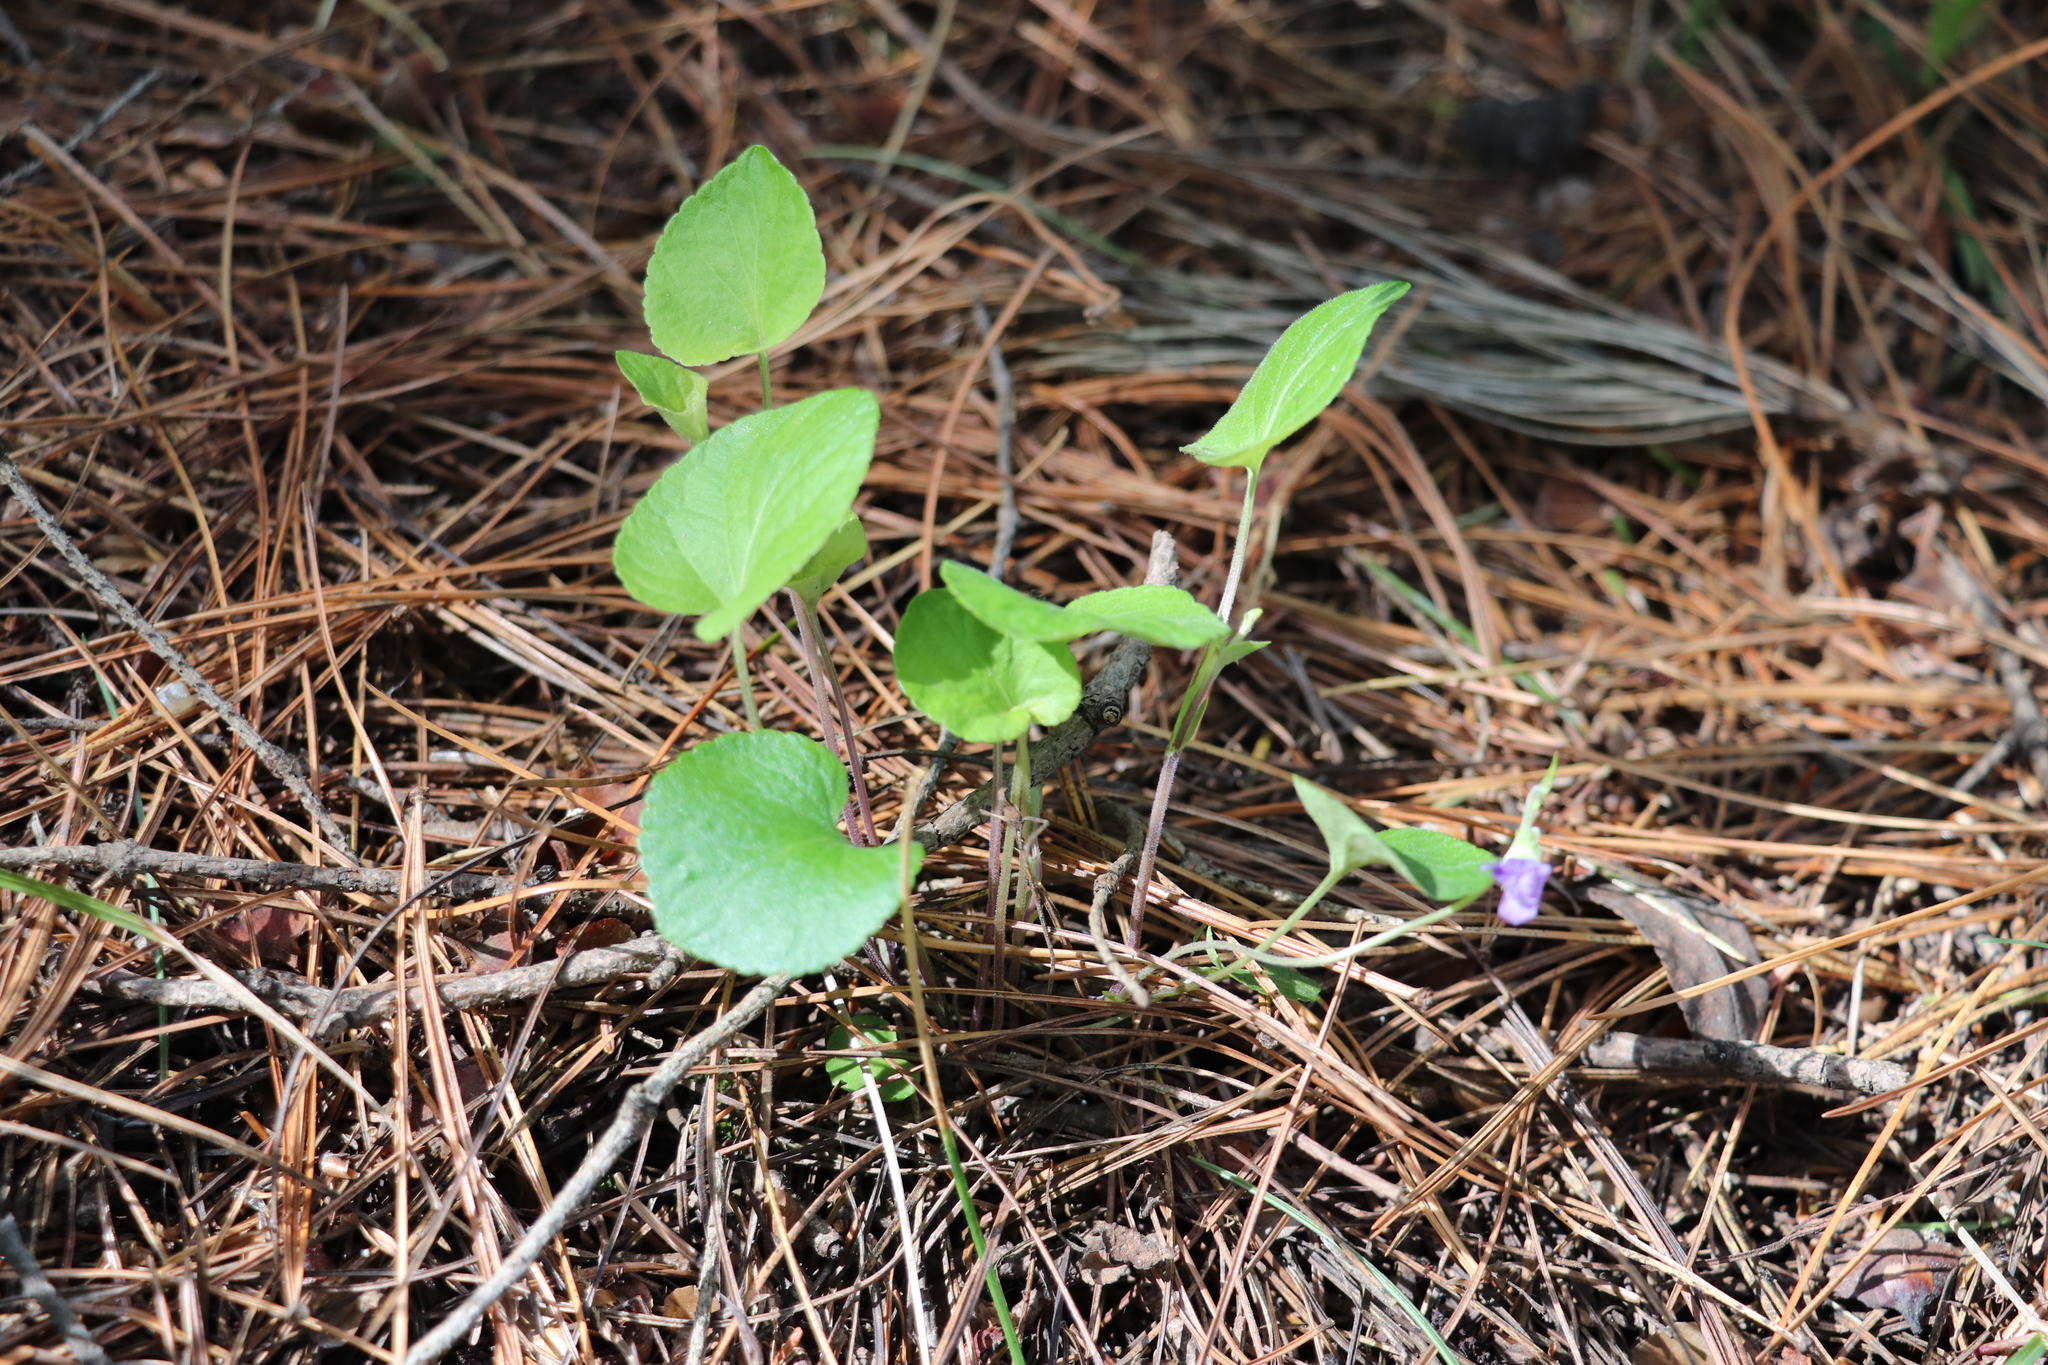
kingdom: Plantae
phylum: Tracheophyta
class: Magnoliopsida
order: Malpighiales
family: Violaceae
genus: Viola
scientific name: Viola mirabilis
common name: Wonder violet
